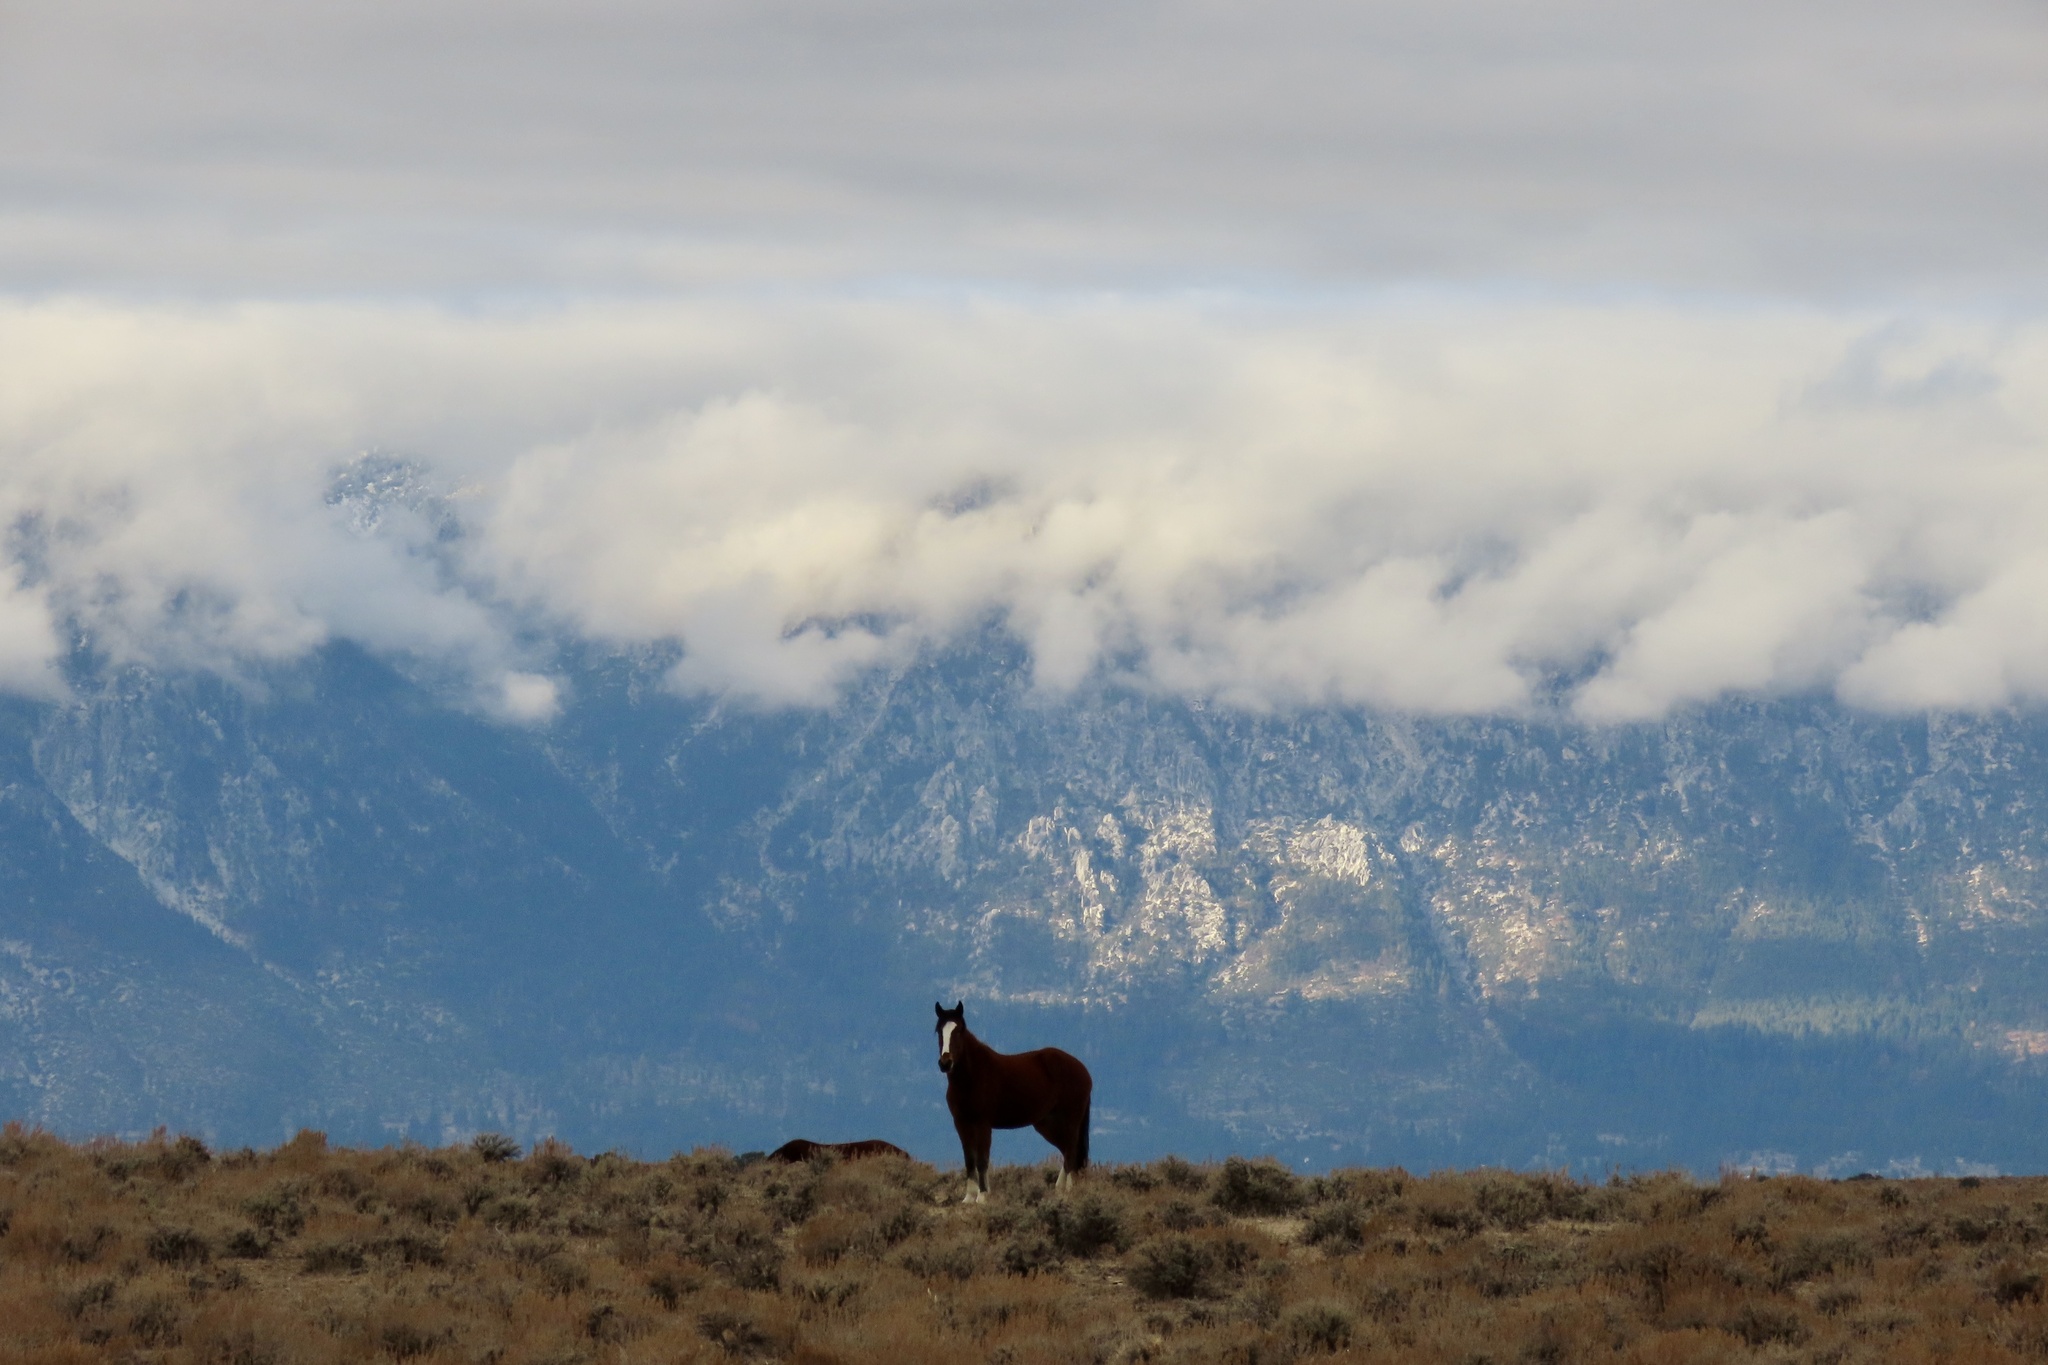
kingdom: Animalia
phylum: Chordata
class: Mammalia
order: Perissodactyla
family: Equidae
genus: Equus
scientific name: Equus caballus
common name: Horse
